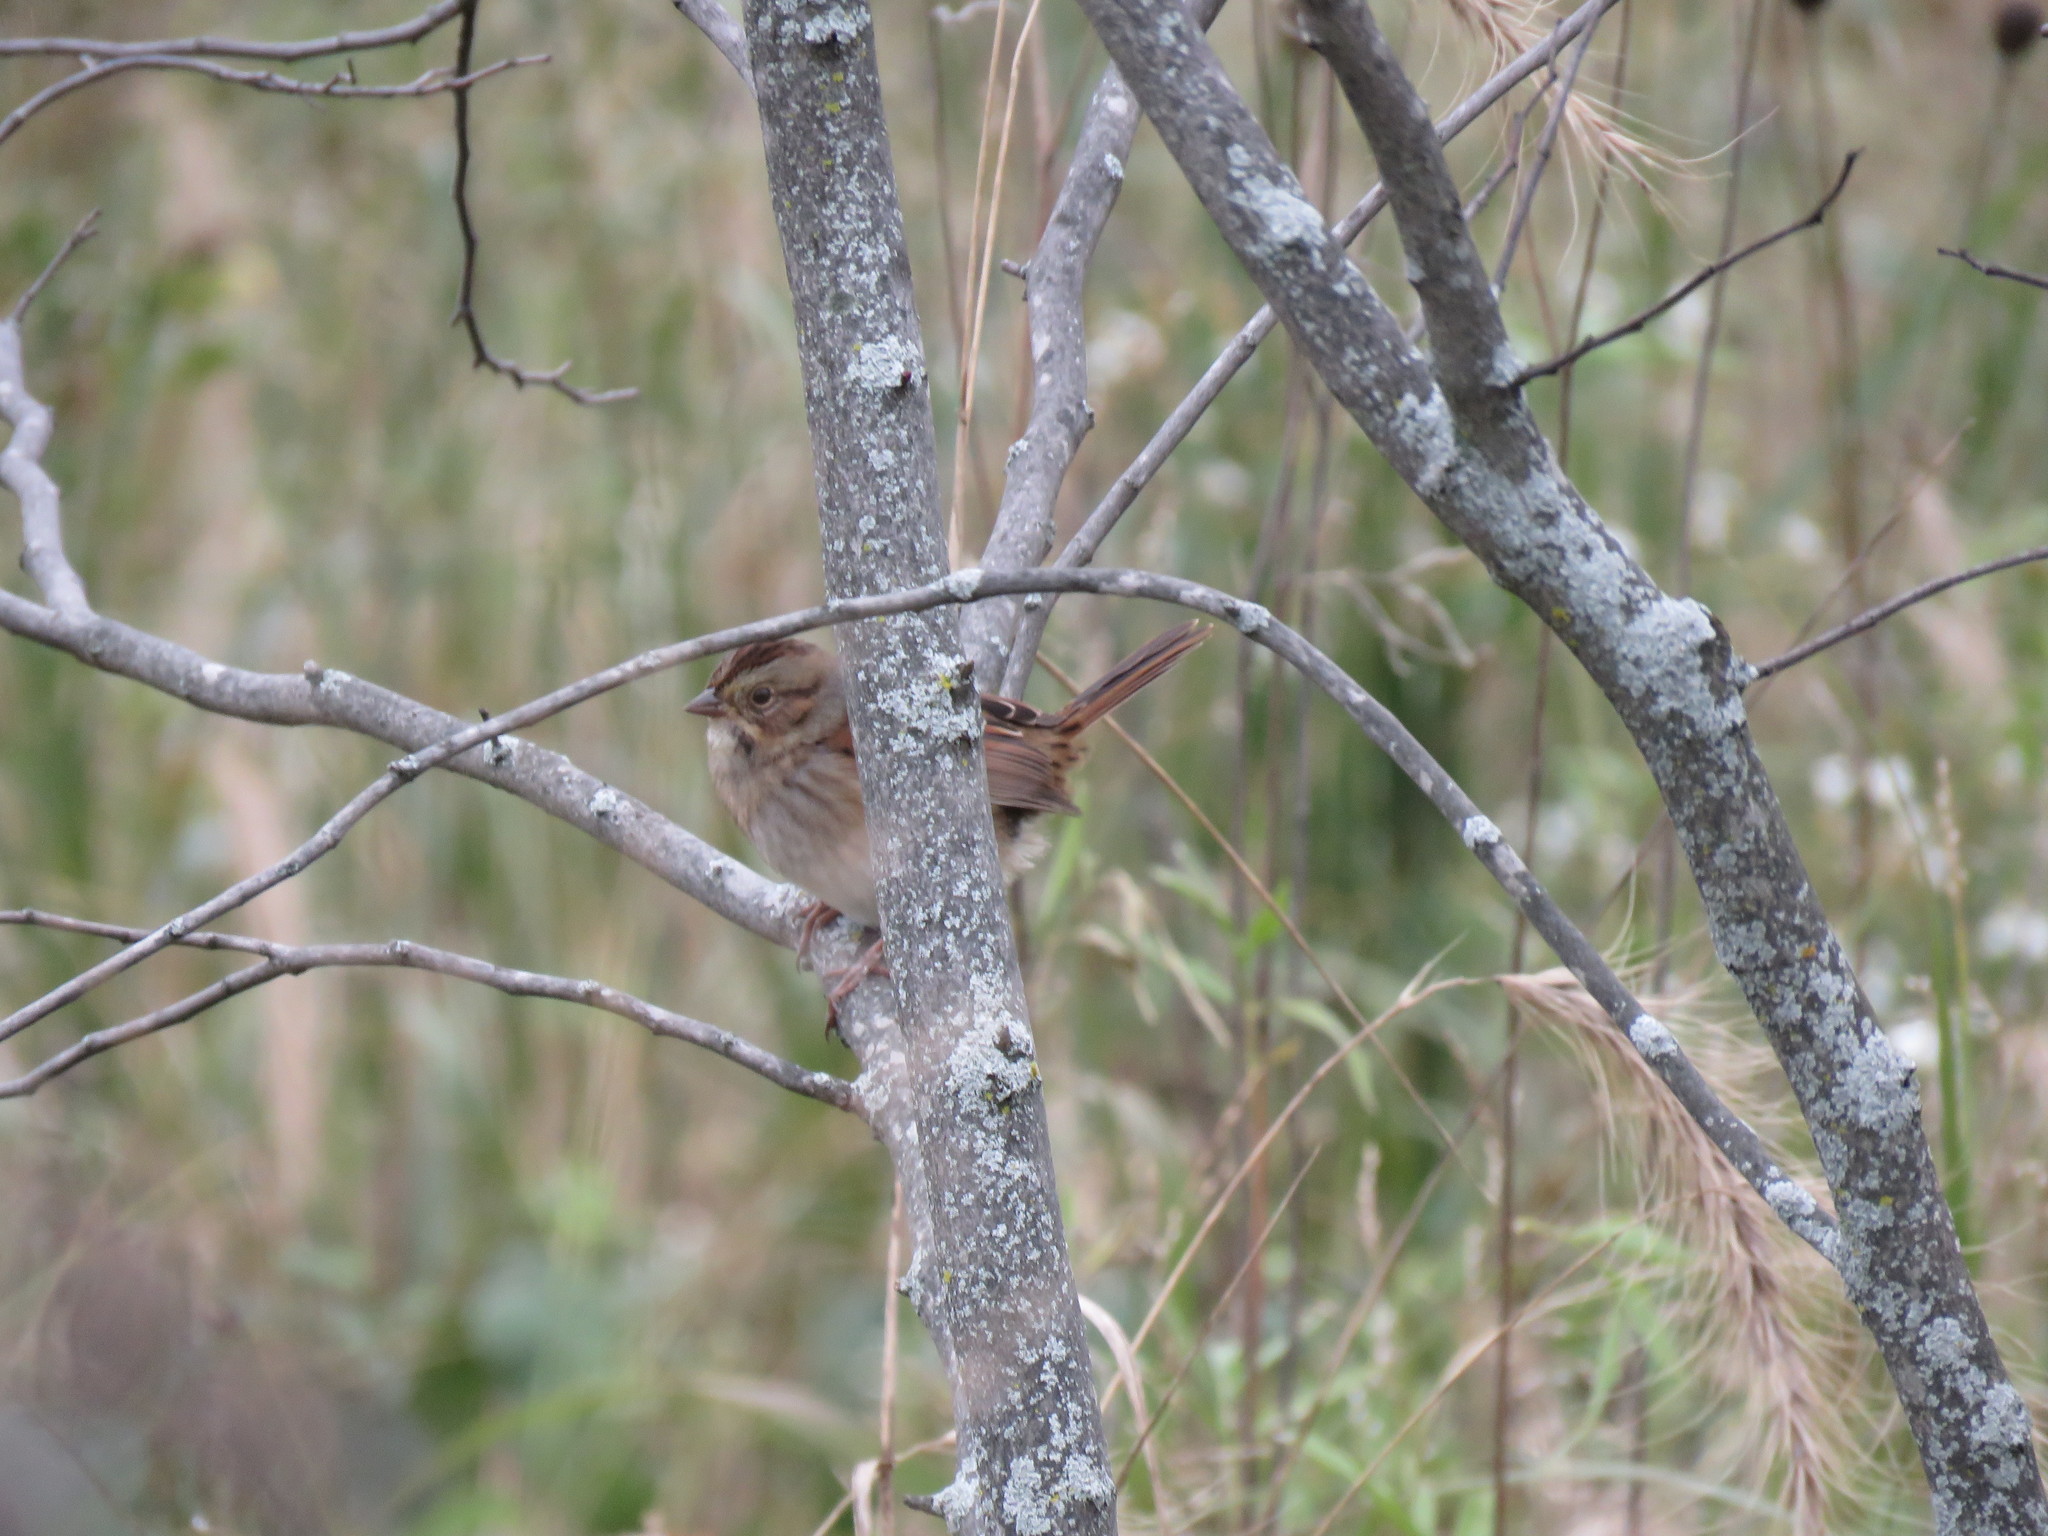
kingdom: Animalia
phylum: Chordata
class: Aves
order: Passeriformes
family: Passerellidae
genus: Melospiza
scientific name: Melospiza georgiana
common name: Swamp sparrow
